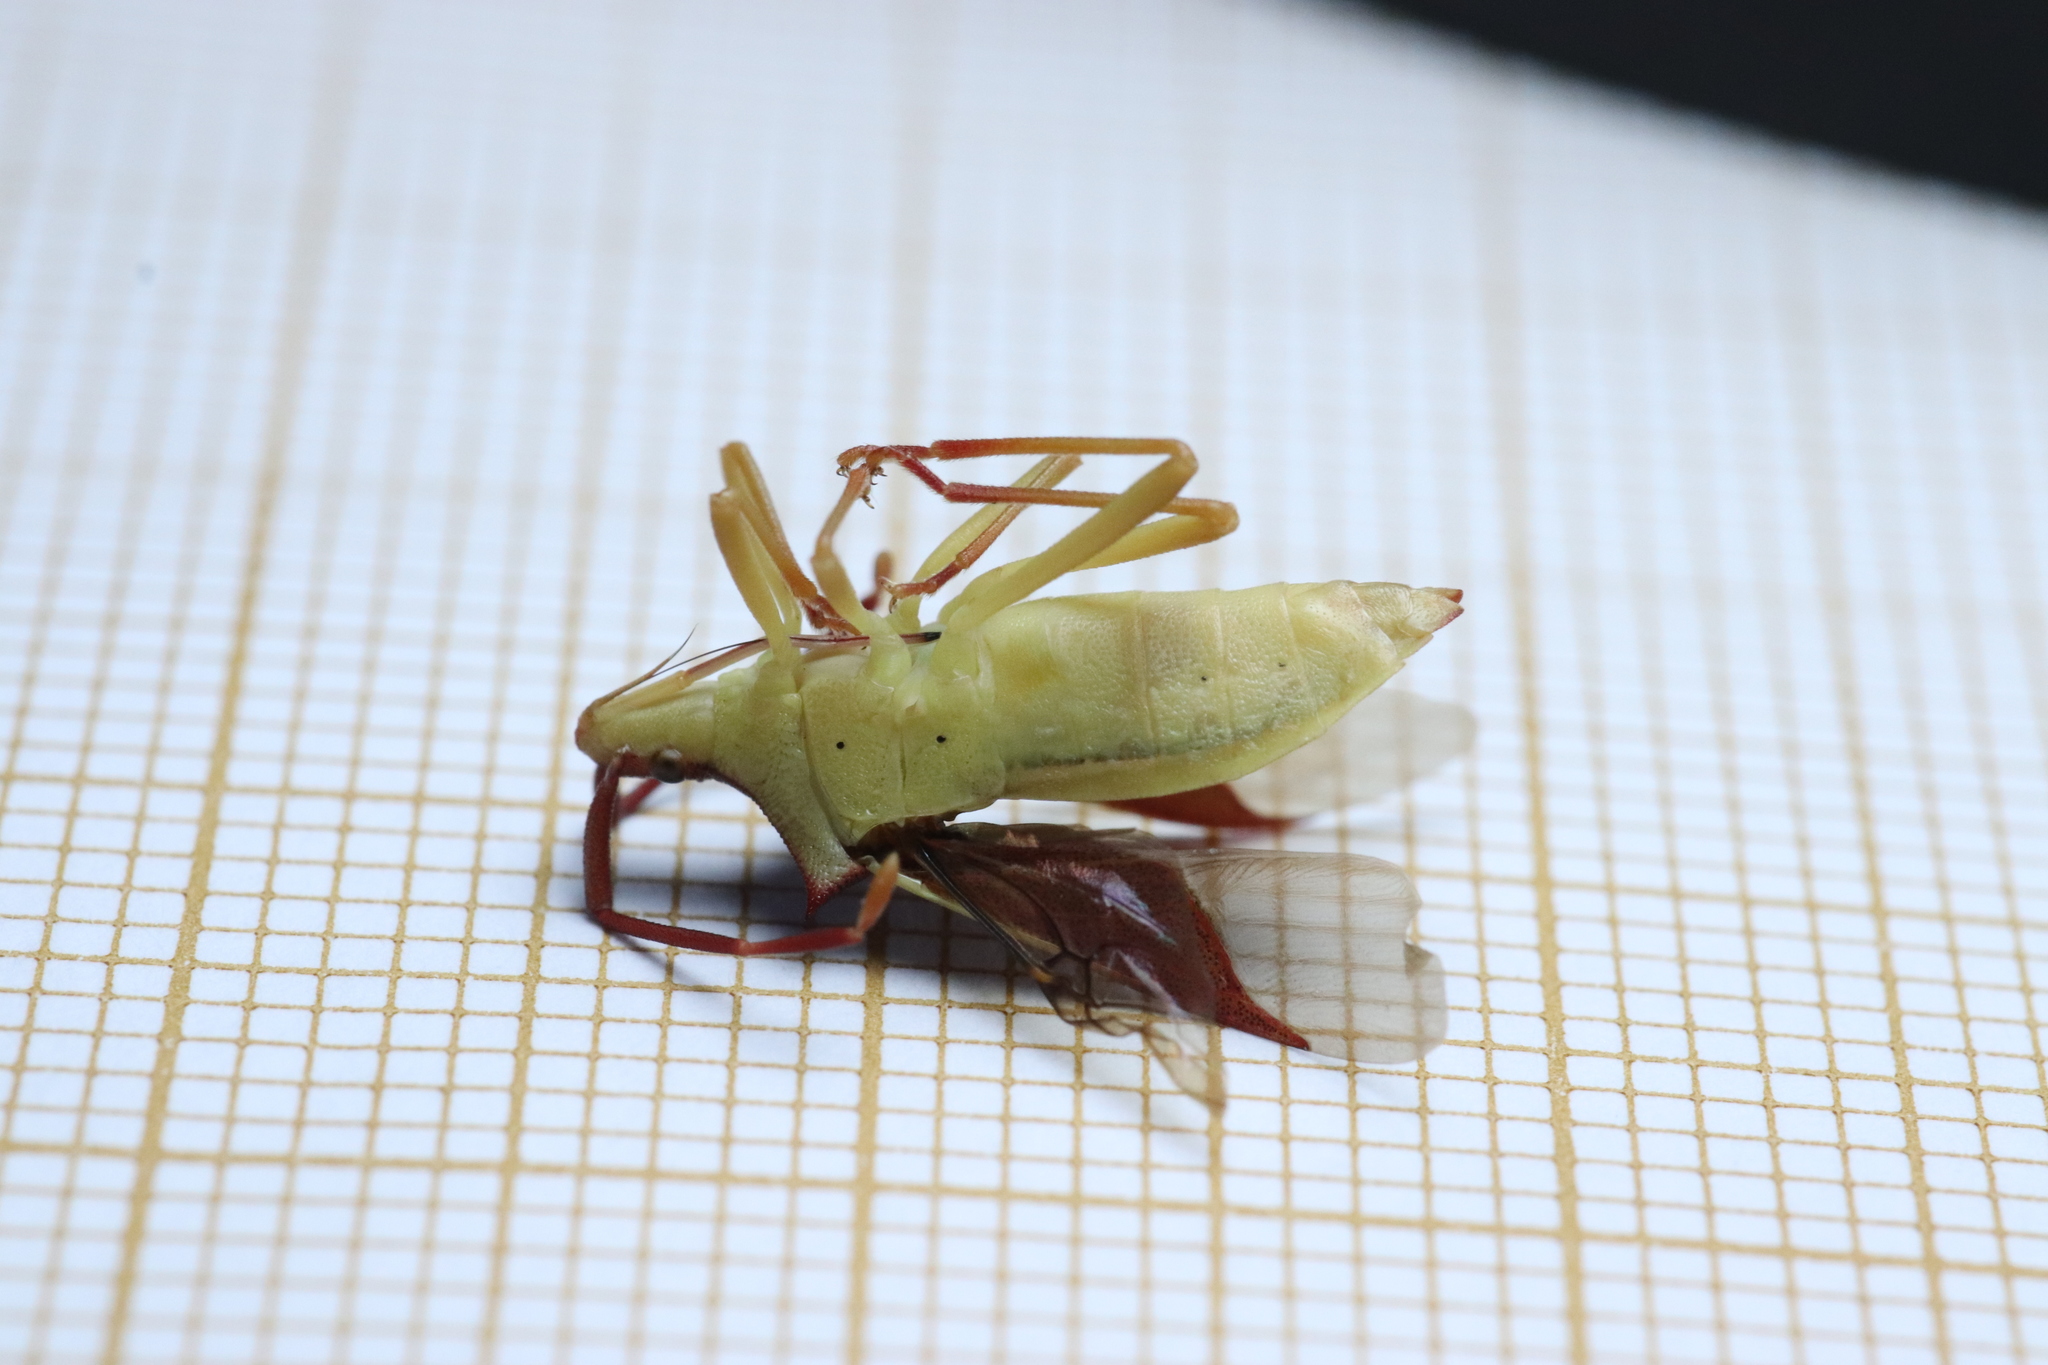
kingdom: Animalia
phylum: Arthropoda
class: Insecta
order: Hemiptera
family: Coreidae
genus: Gonocerus
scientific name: Gonocerus insidiator
